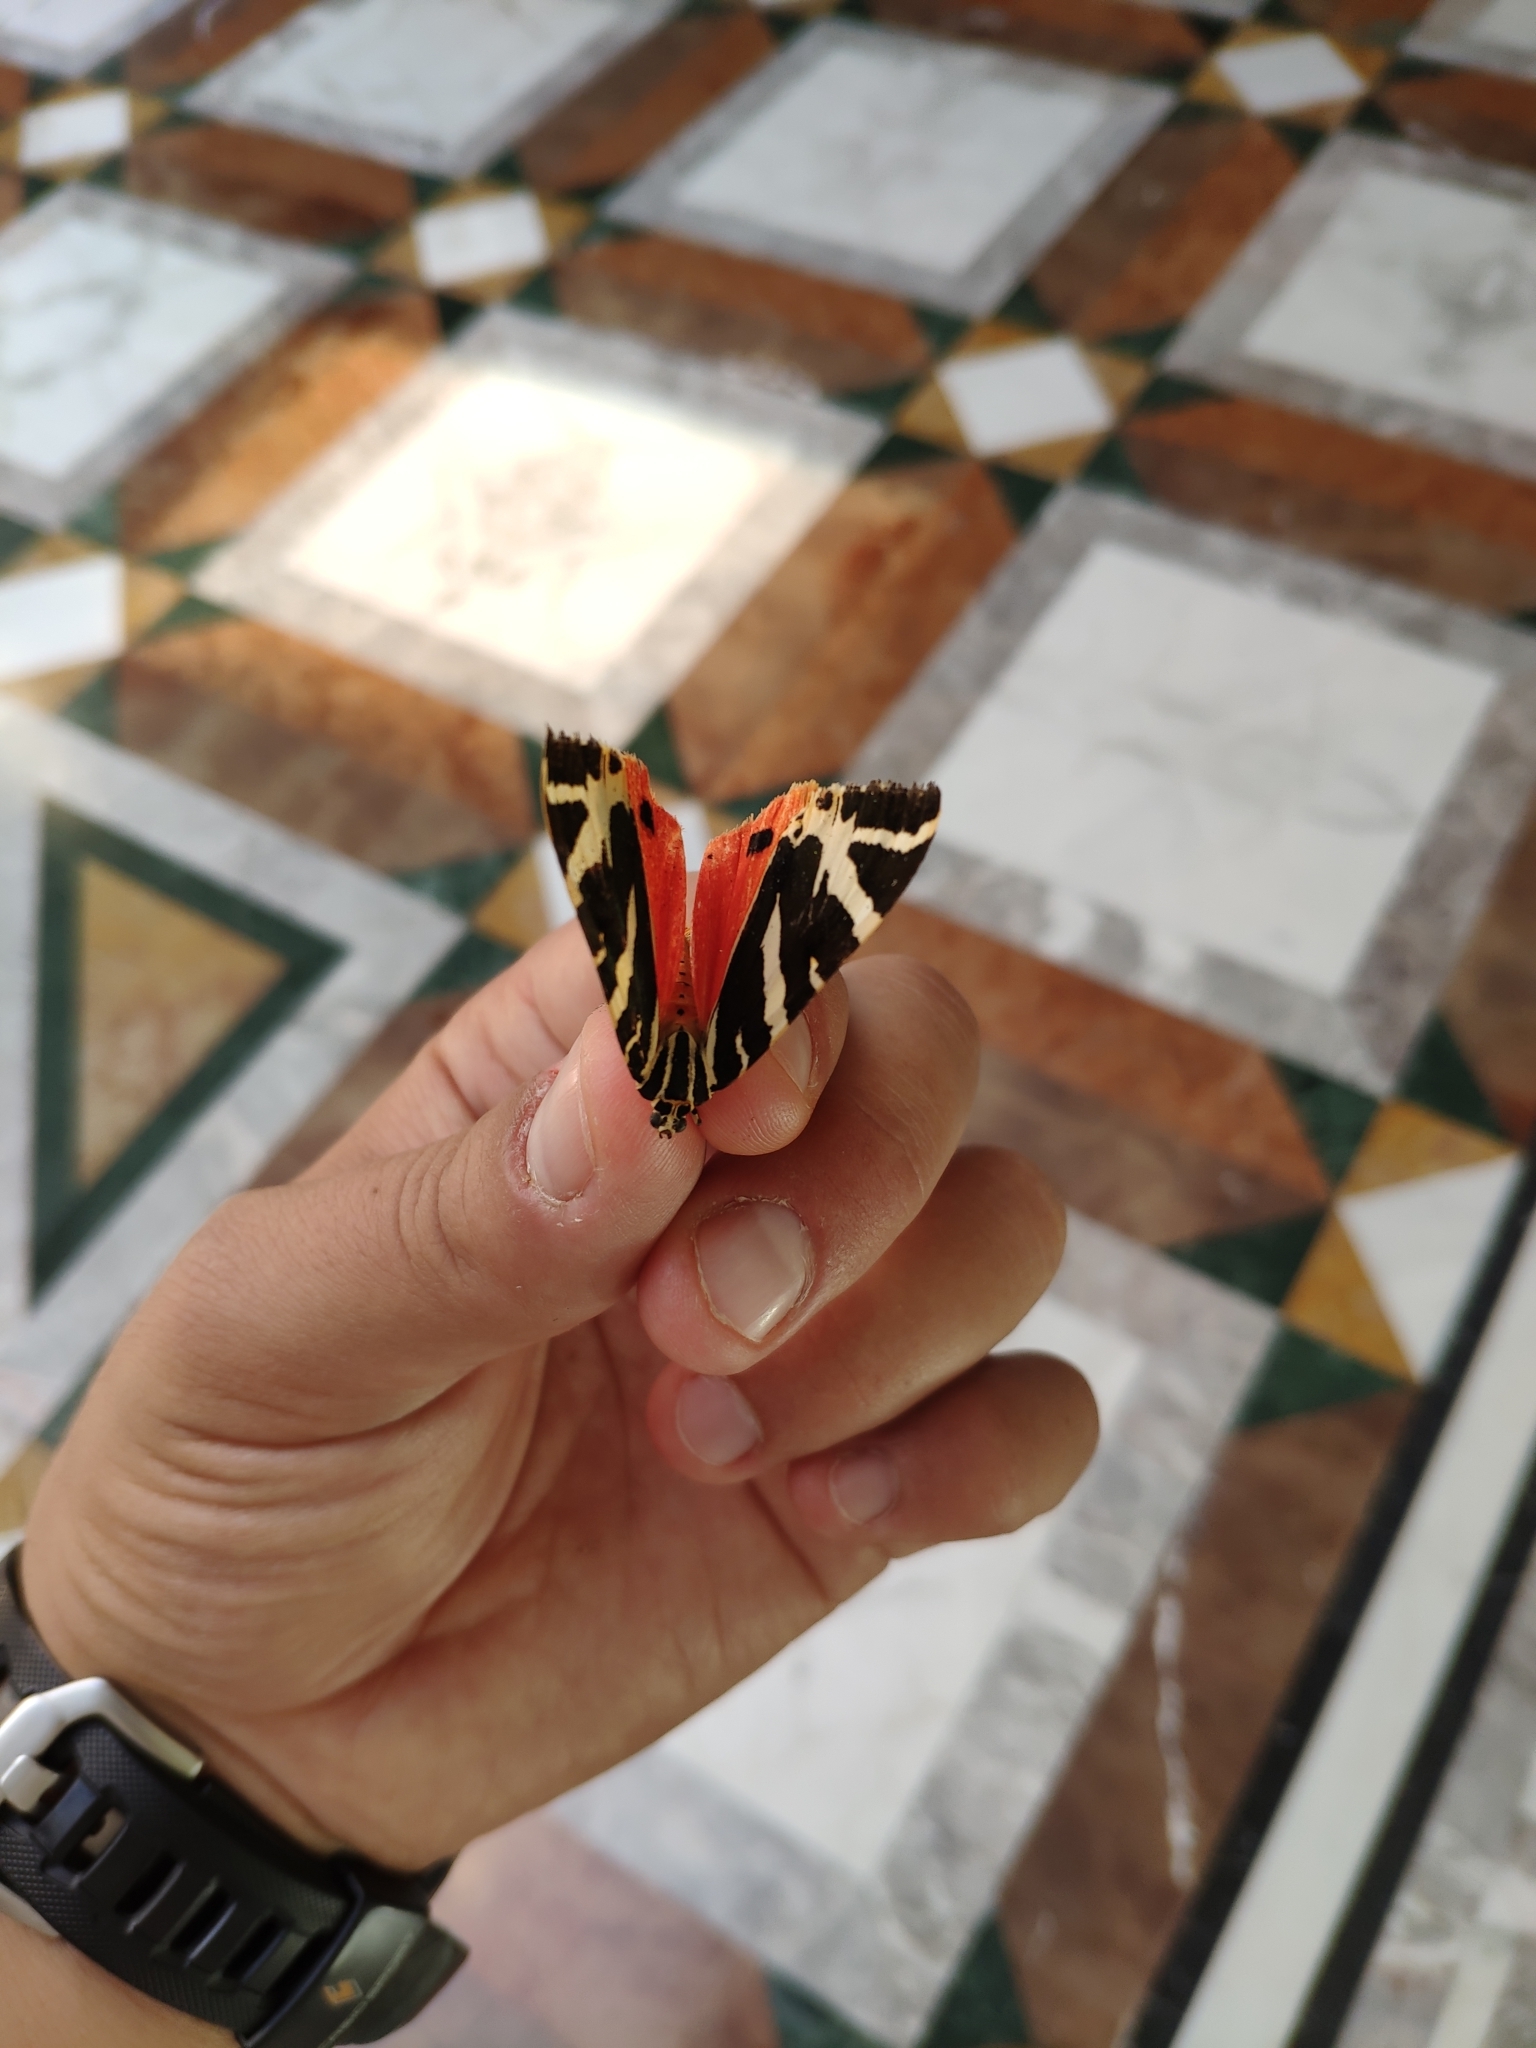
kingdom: Animalia
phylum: Arthropoda
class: Insecta
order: Lepidoptera
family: Erebidae
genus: Euplagia
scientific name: Euplagia quadripunctaria
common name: Jersey tiger
